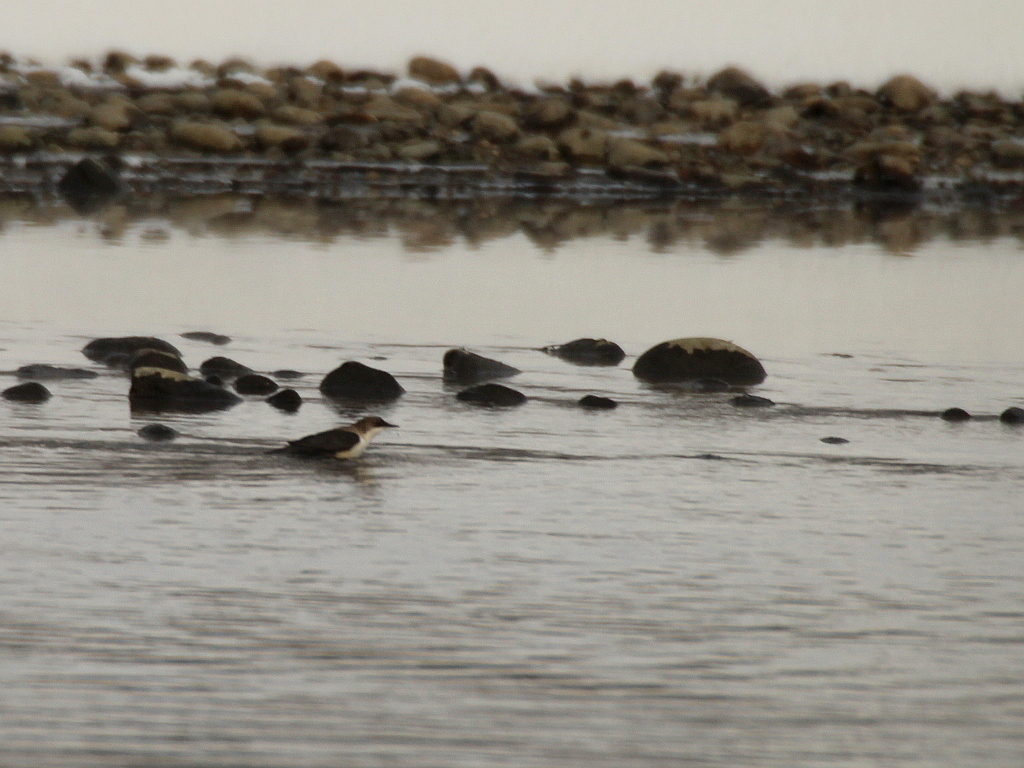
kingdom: Animalia
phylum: Chordata
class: Aves
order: Passeriformes
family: Cinclidae
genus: Cinclus
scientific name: Cinclus cinclus
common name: White-throated dipper
